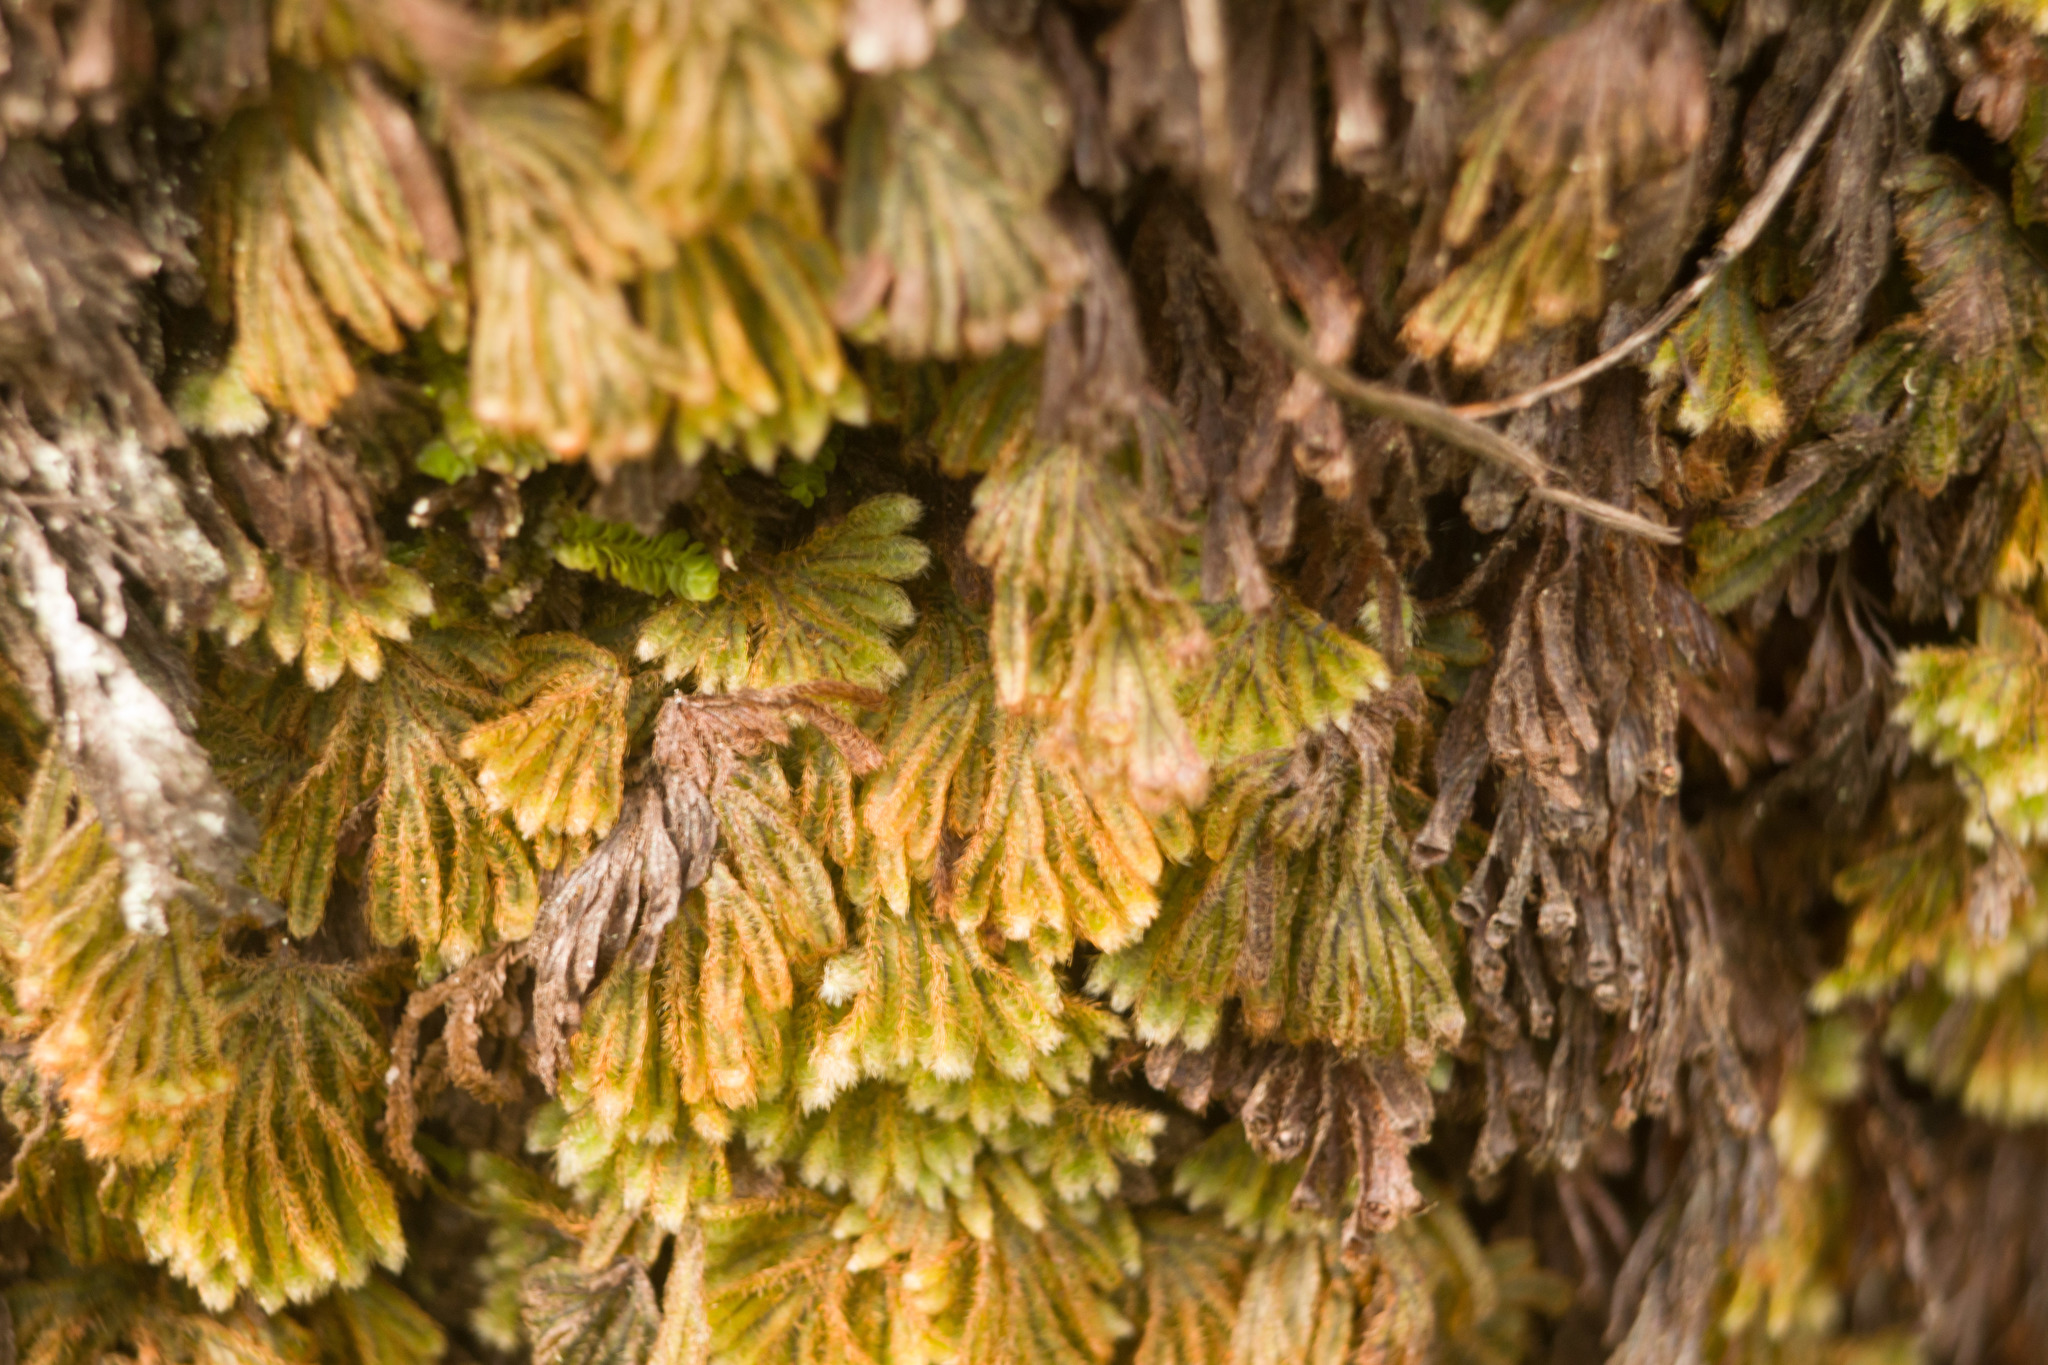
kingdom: Plantae
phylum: Tracheophyta
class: Polypodiopsida
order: Hymenophyllales
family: Hymenophyllaceae
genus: Hymenophyllum
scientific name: Hymenophyllum obtusum
